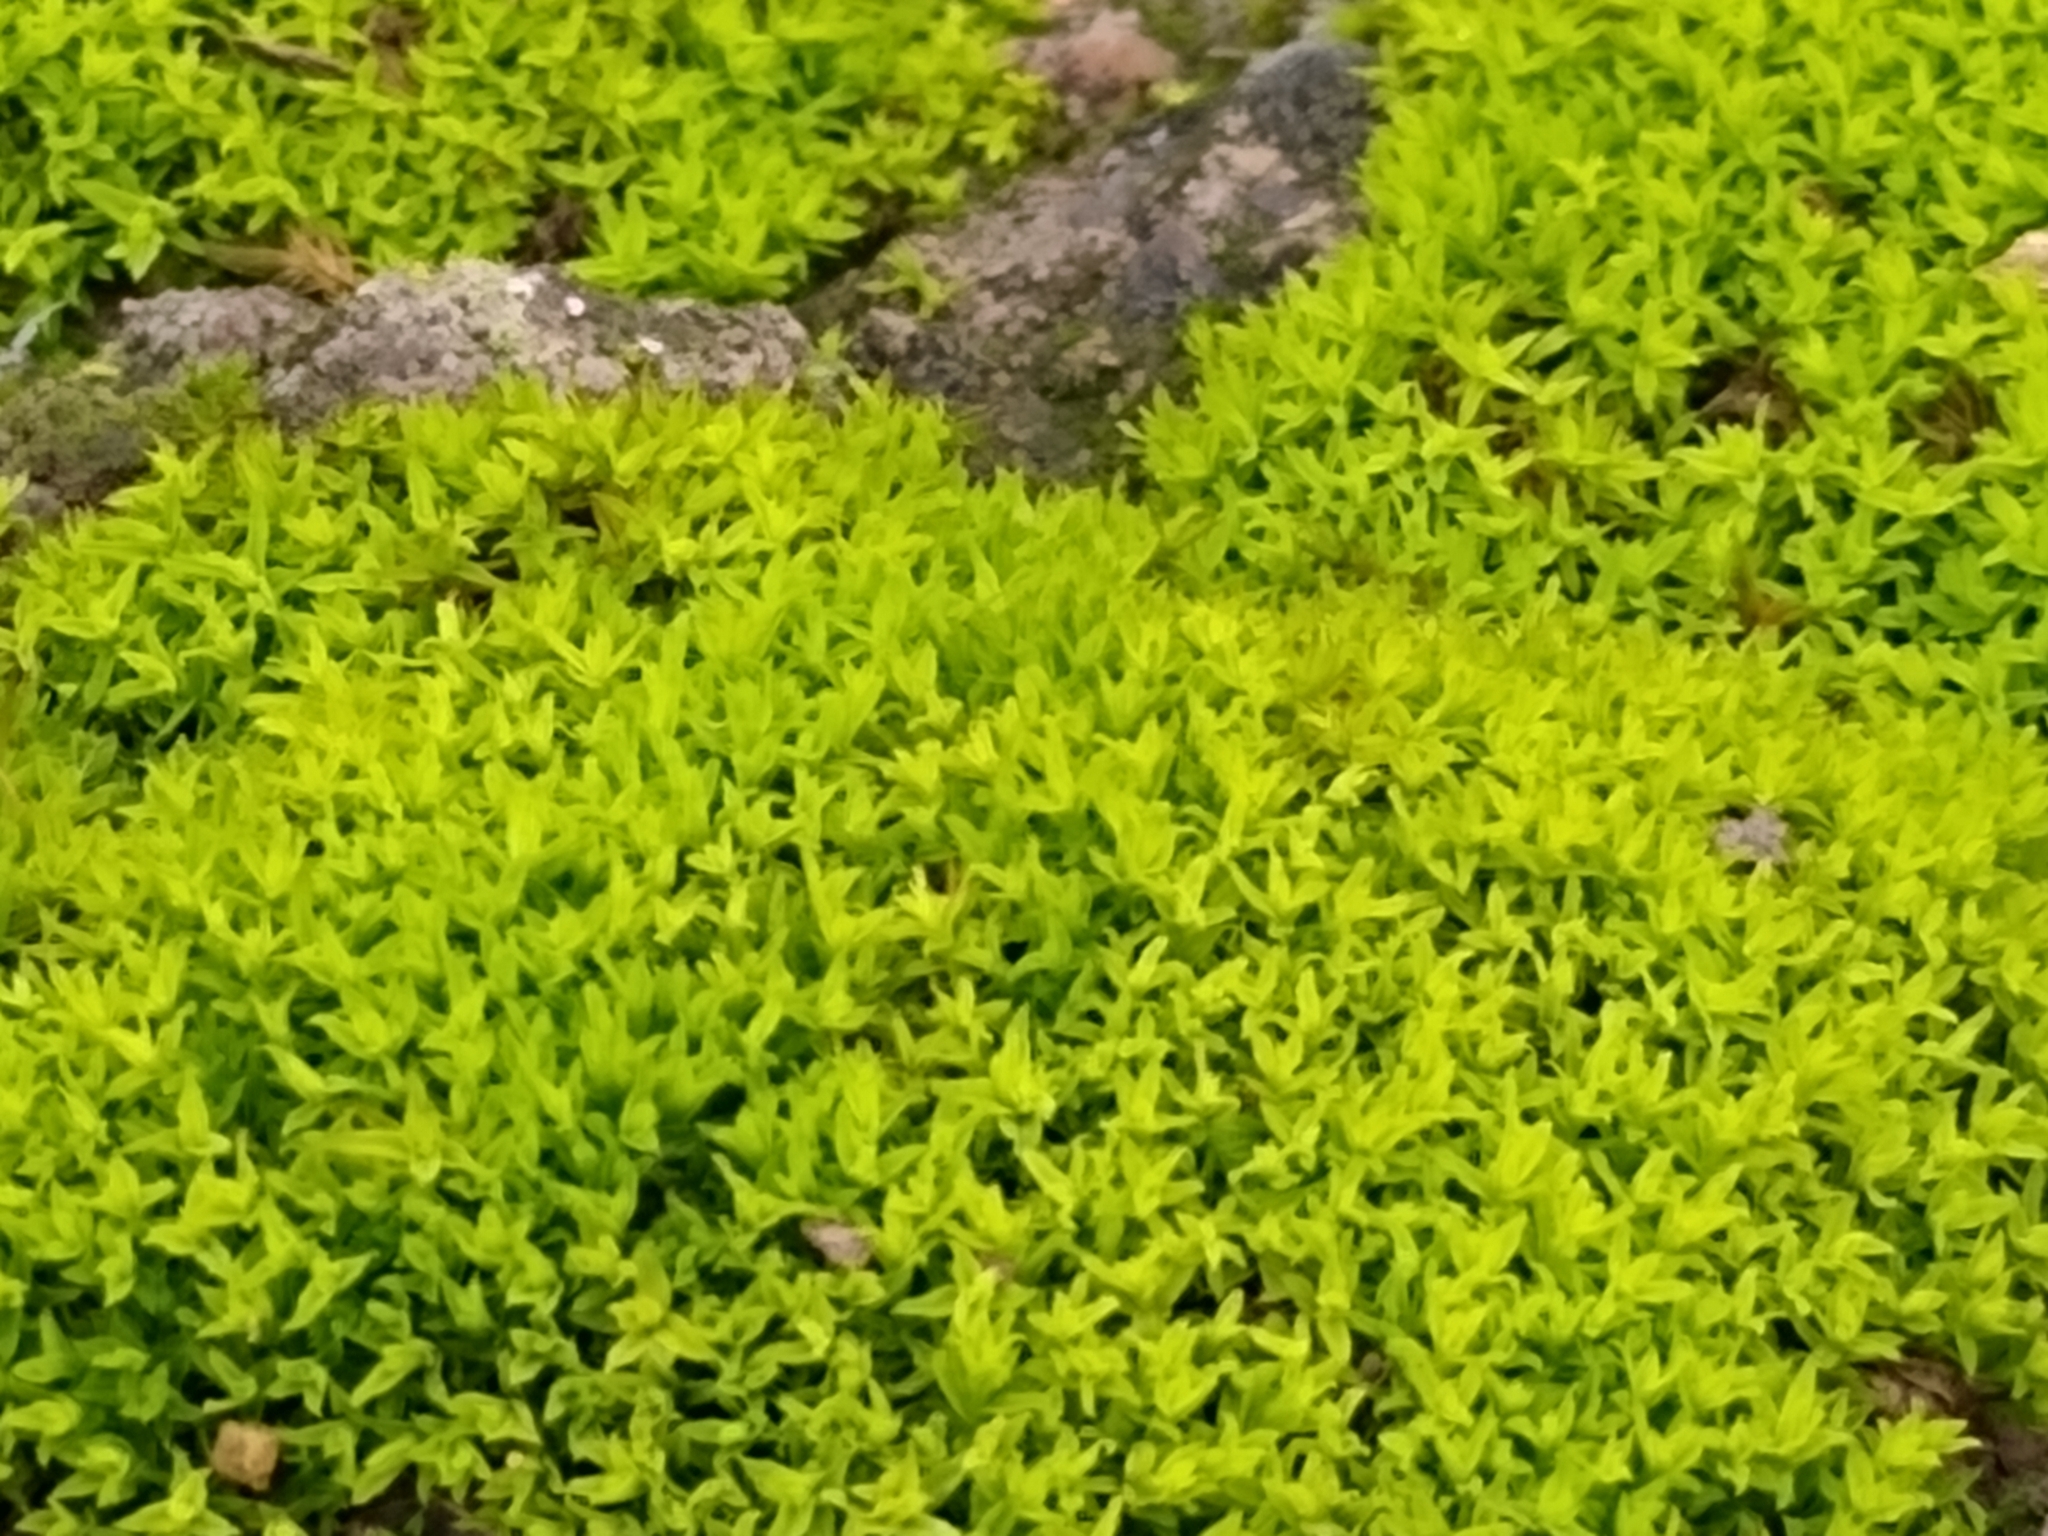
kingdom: Plantae
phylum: Bryophyta
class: Bryopsida
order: Pottiales
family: Pottiaceae
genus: Barbula
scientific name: Barbula unguiculata
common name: Prickly beard moss
